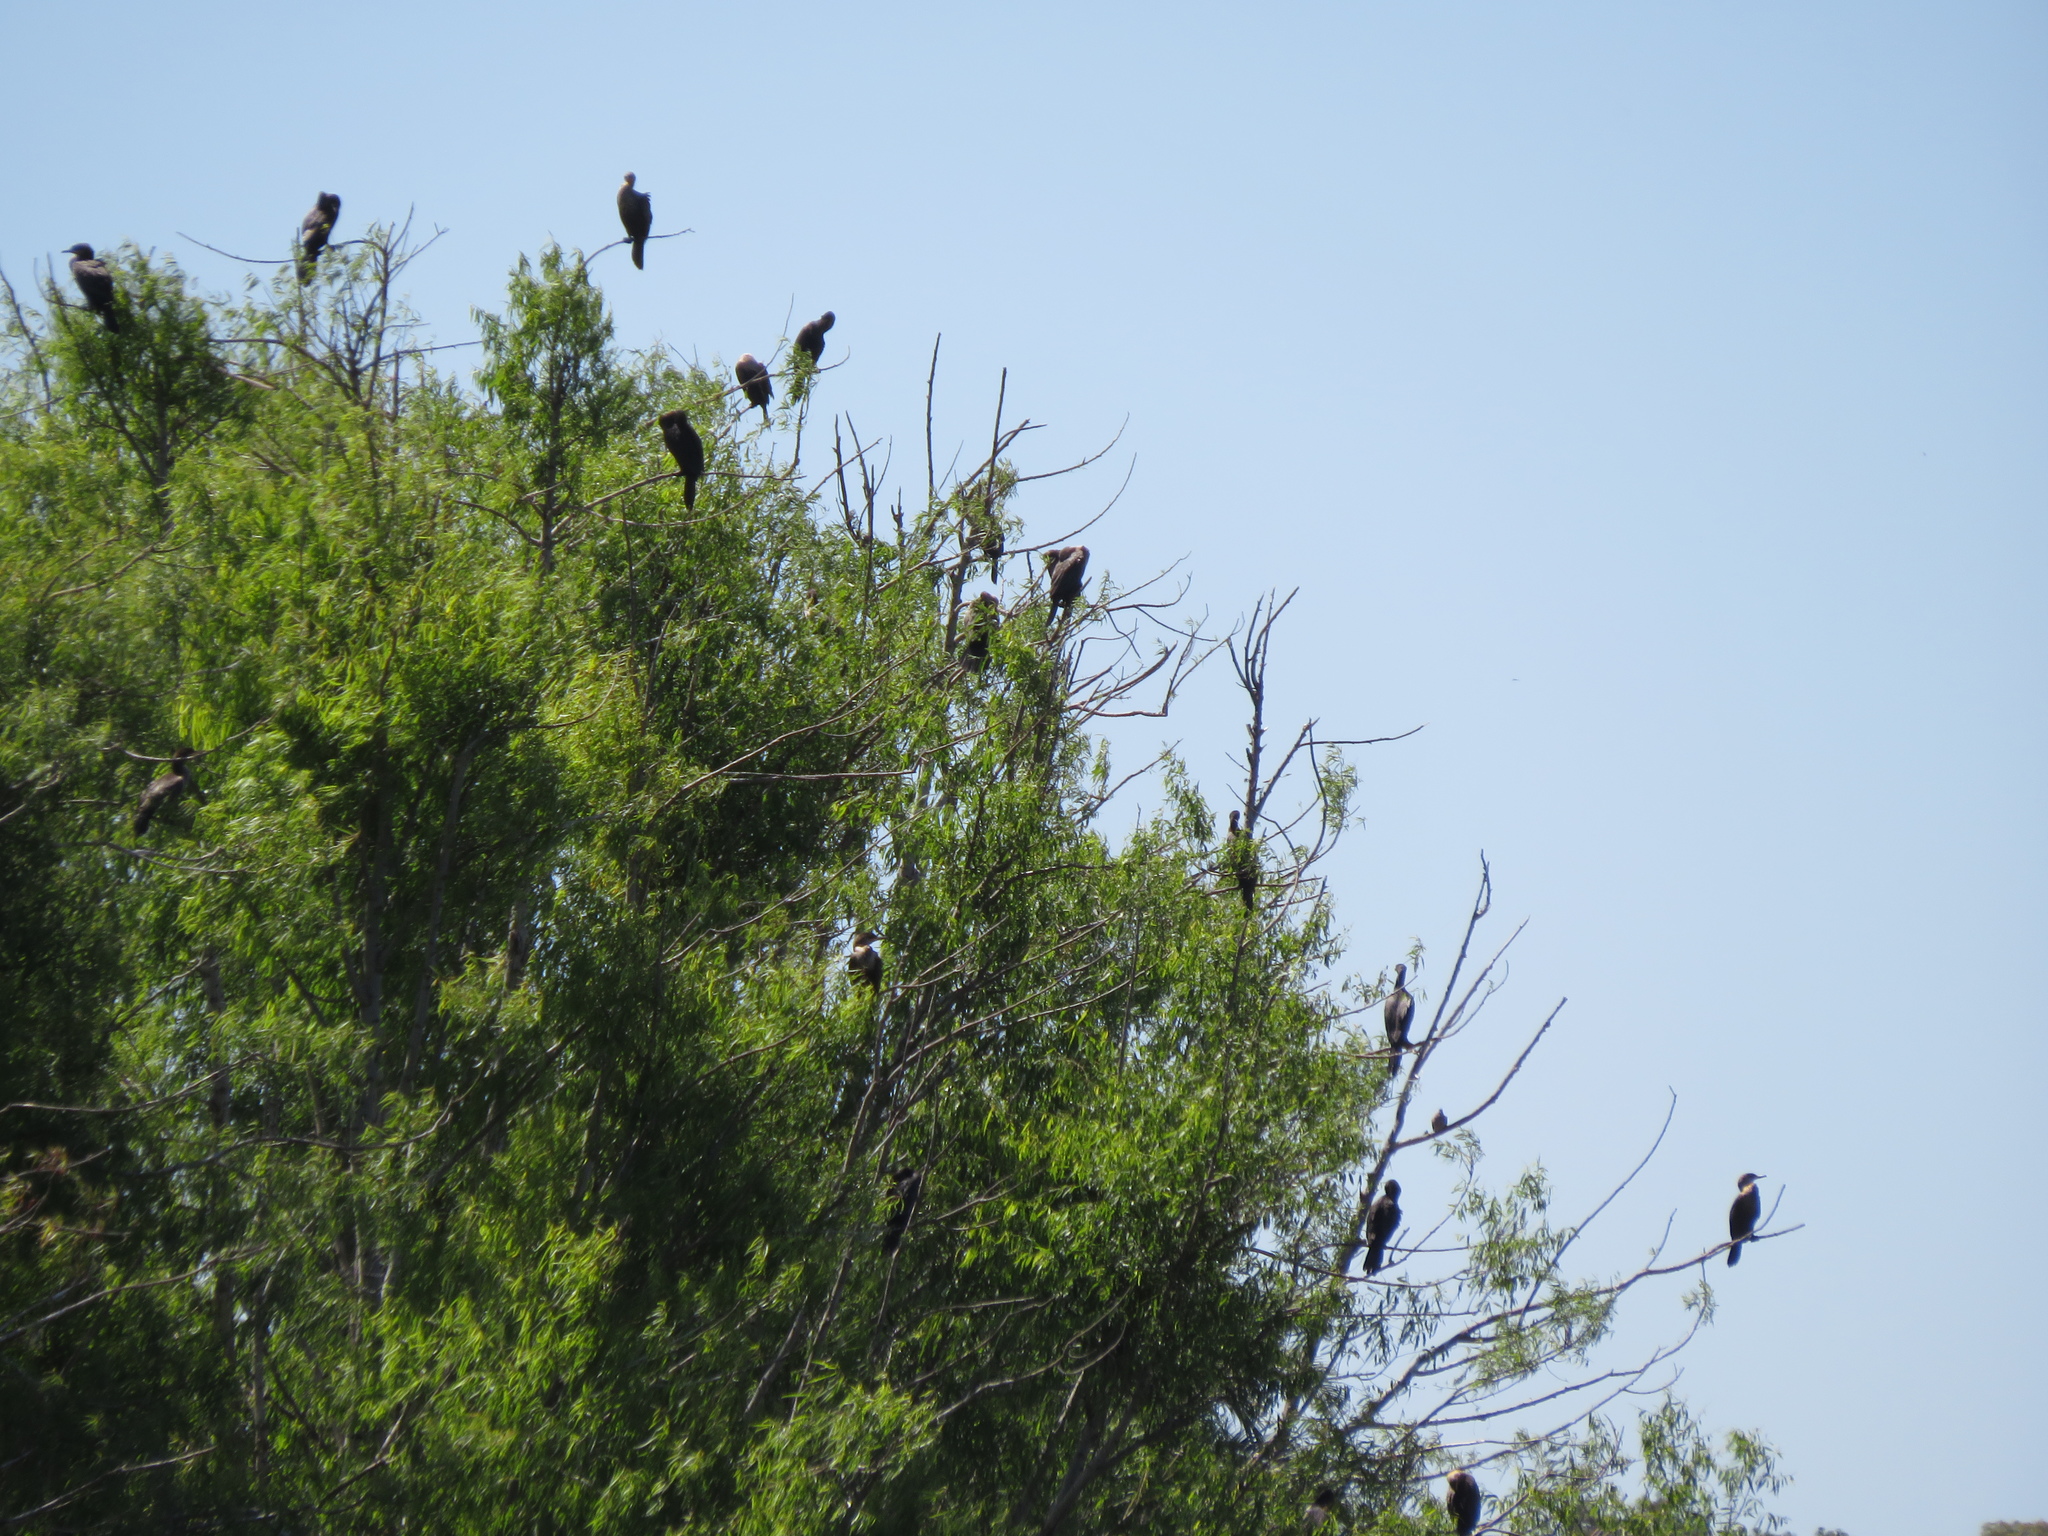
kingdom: Animalia
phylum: Chordata
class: Aves
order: Suliformes
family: Phalacrocoracidae
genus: Phalacrocorax
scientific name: Phalacrocorax brasilianus
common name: Neotropic cormorant
